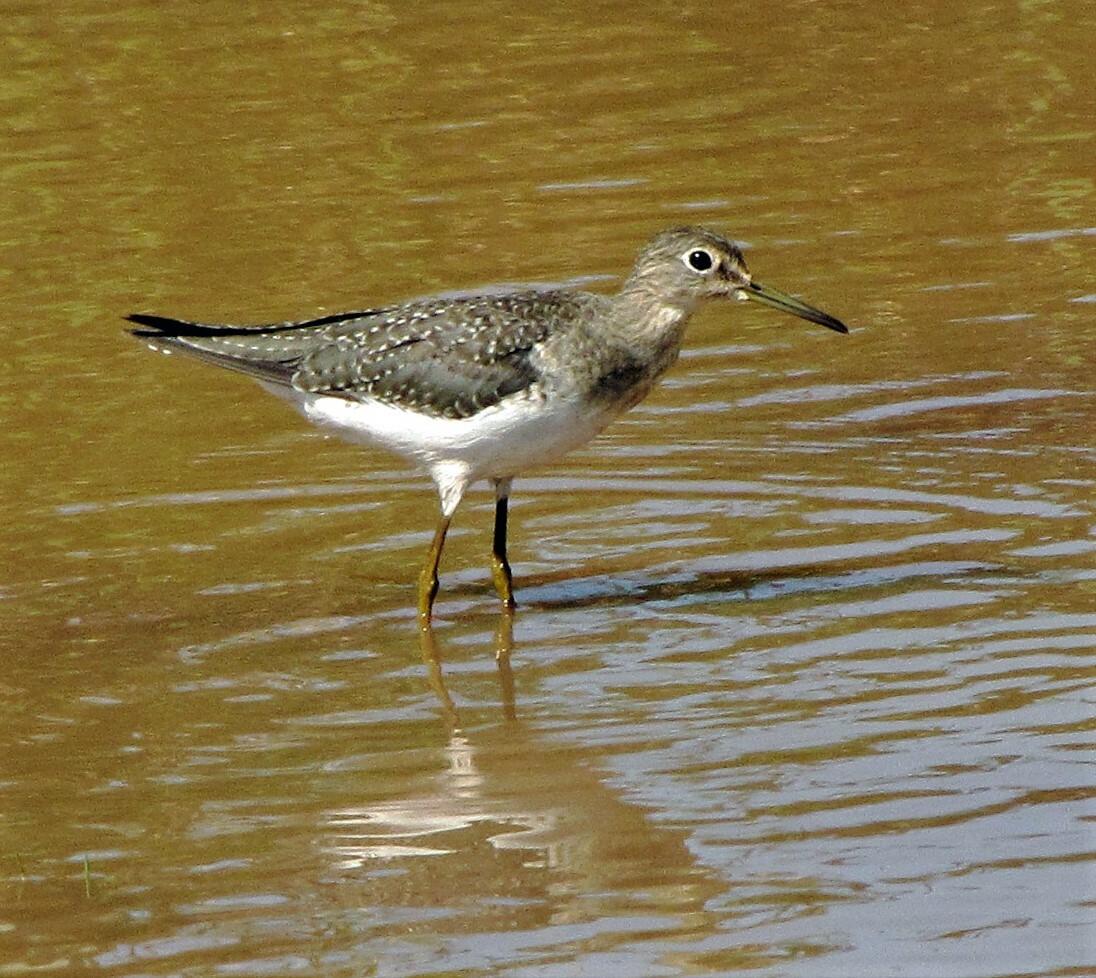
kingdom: Animalia
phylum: Chordata
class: Aves
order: Charadriiformes
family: Scolopacidae
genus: Tringa
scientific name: Tringa solitaria
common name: Solitary sandpiper
